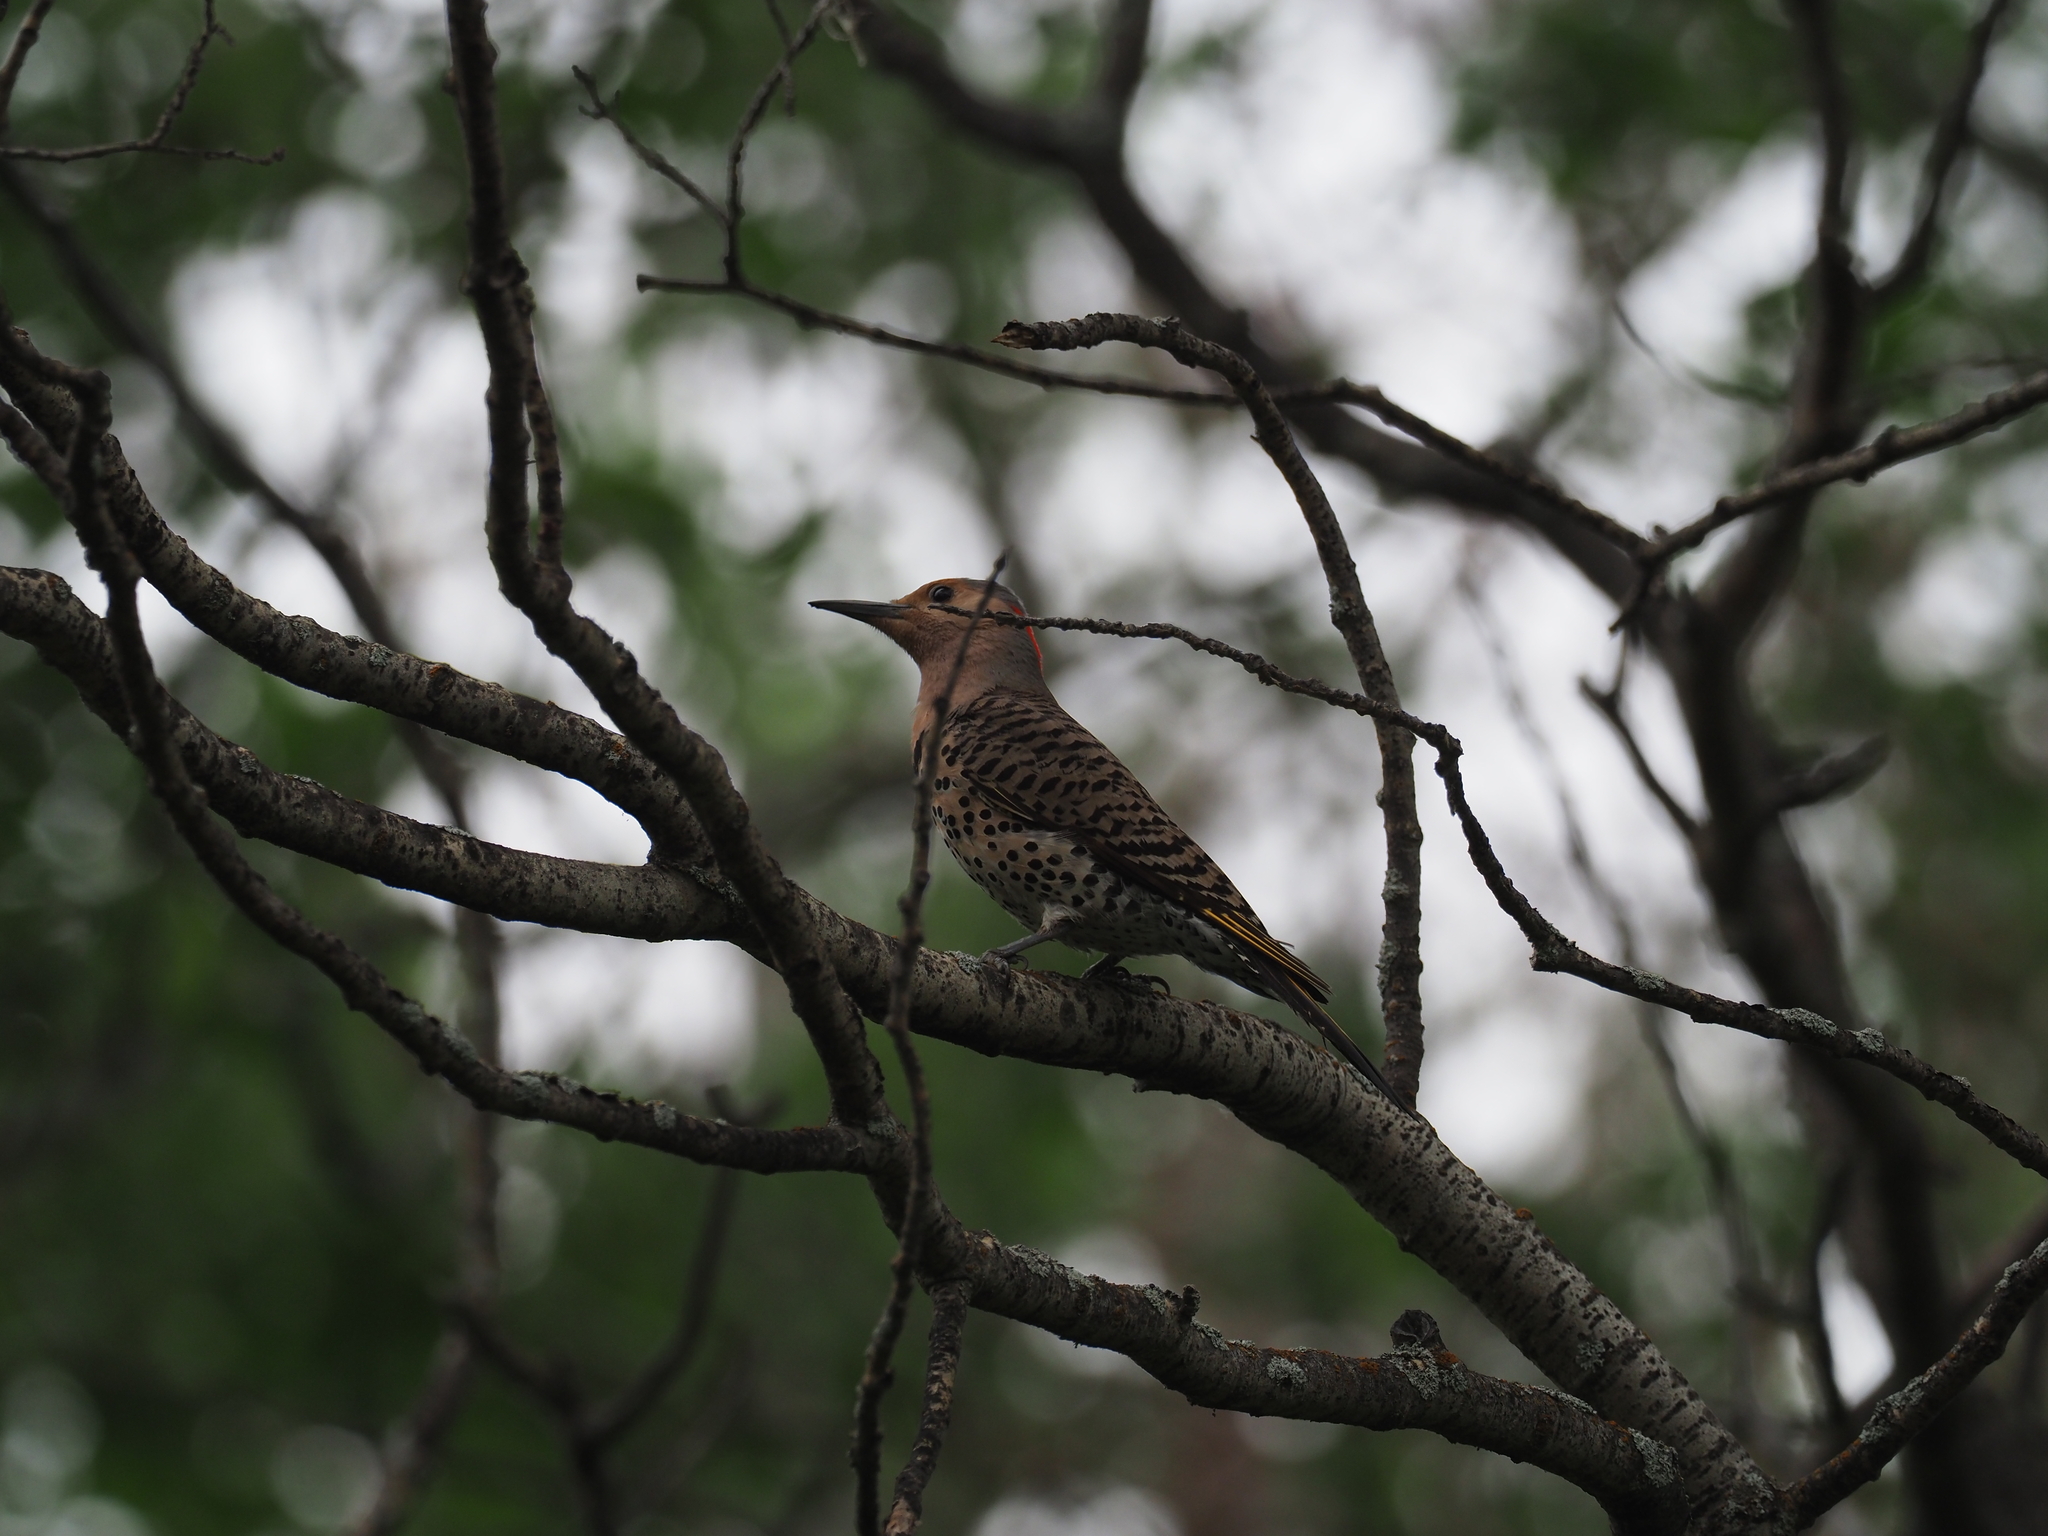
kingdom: Animalia
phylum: Chordata
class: Aves
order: Piciformes
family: Picidae
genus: Colaptes
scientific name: Colaptes auratus
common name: Northern flicker
